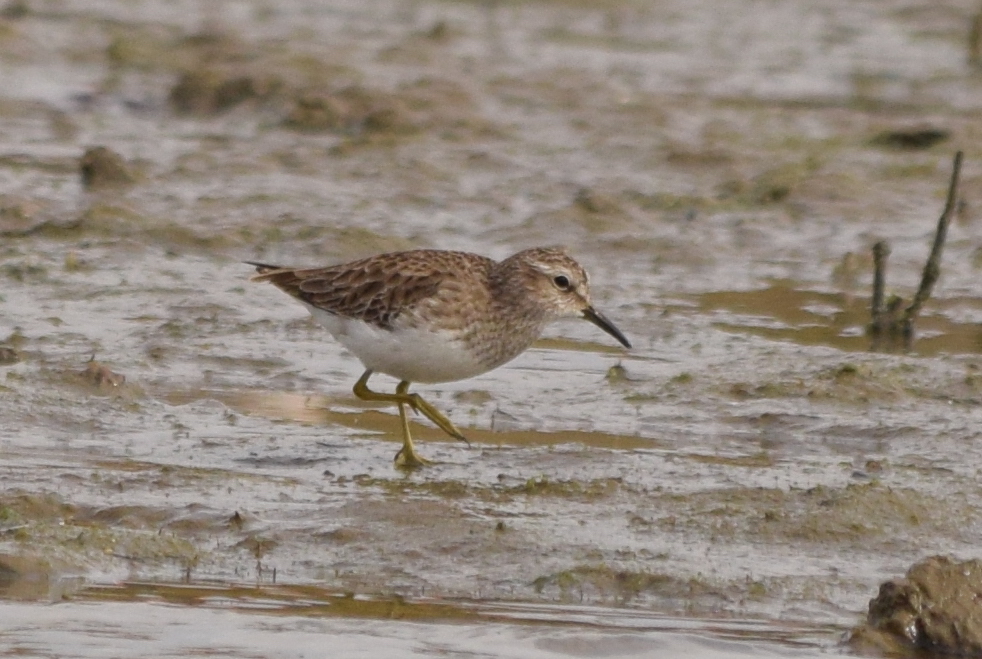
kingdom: Animalia
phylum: Chordata
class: Aves
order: Charadriiformes
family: Scolopacidae
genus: Calidris
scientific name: Calidris minutilla
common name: Least sandpiper
